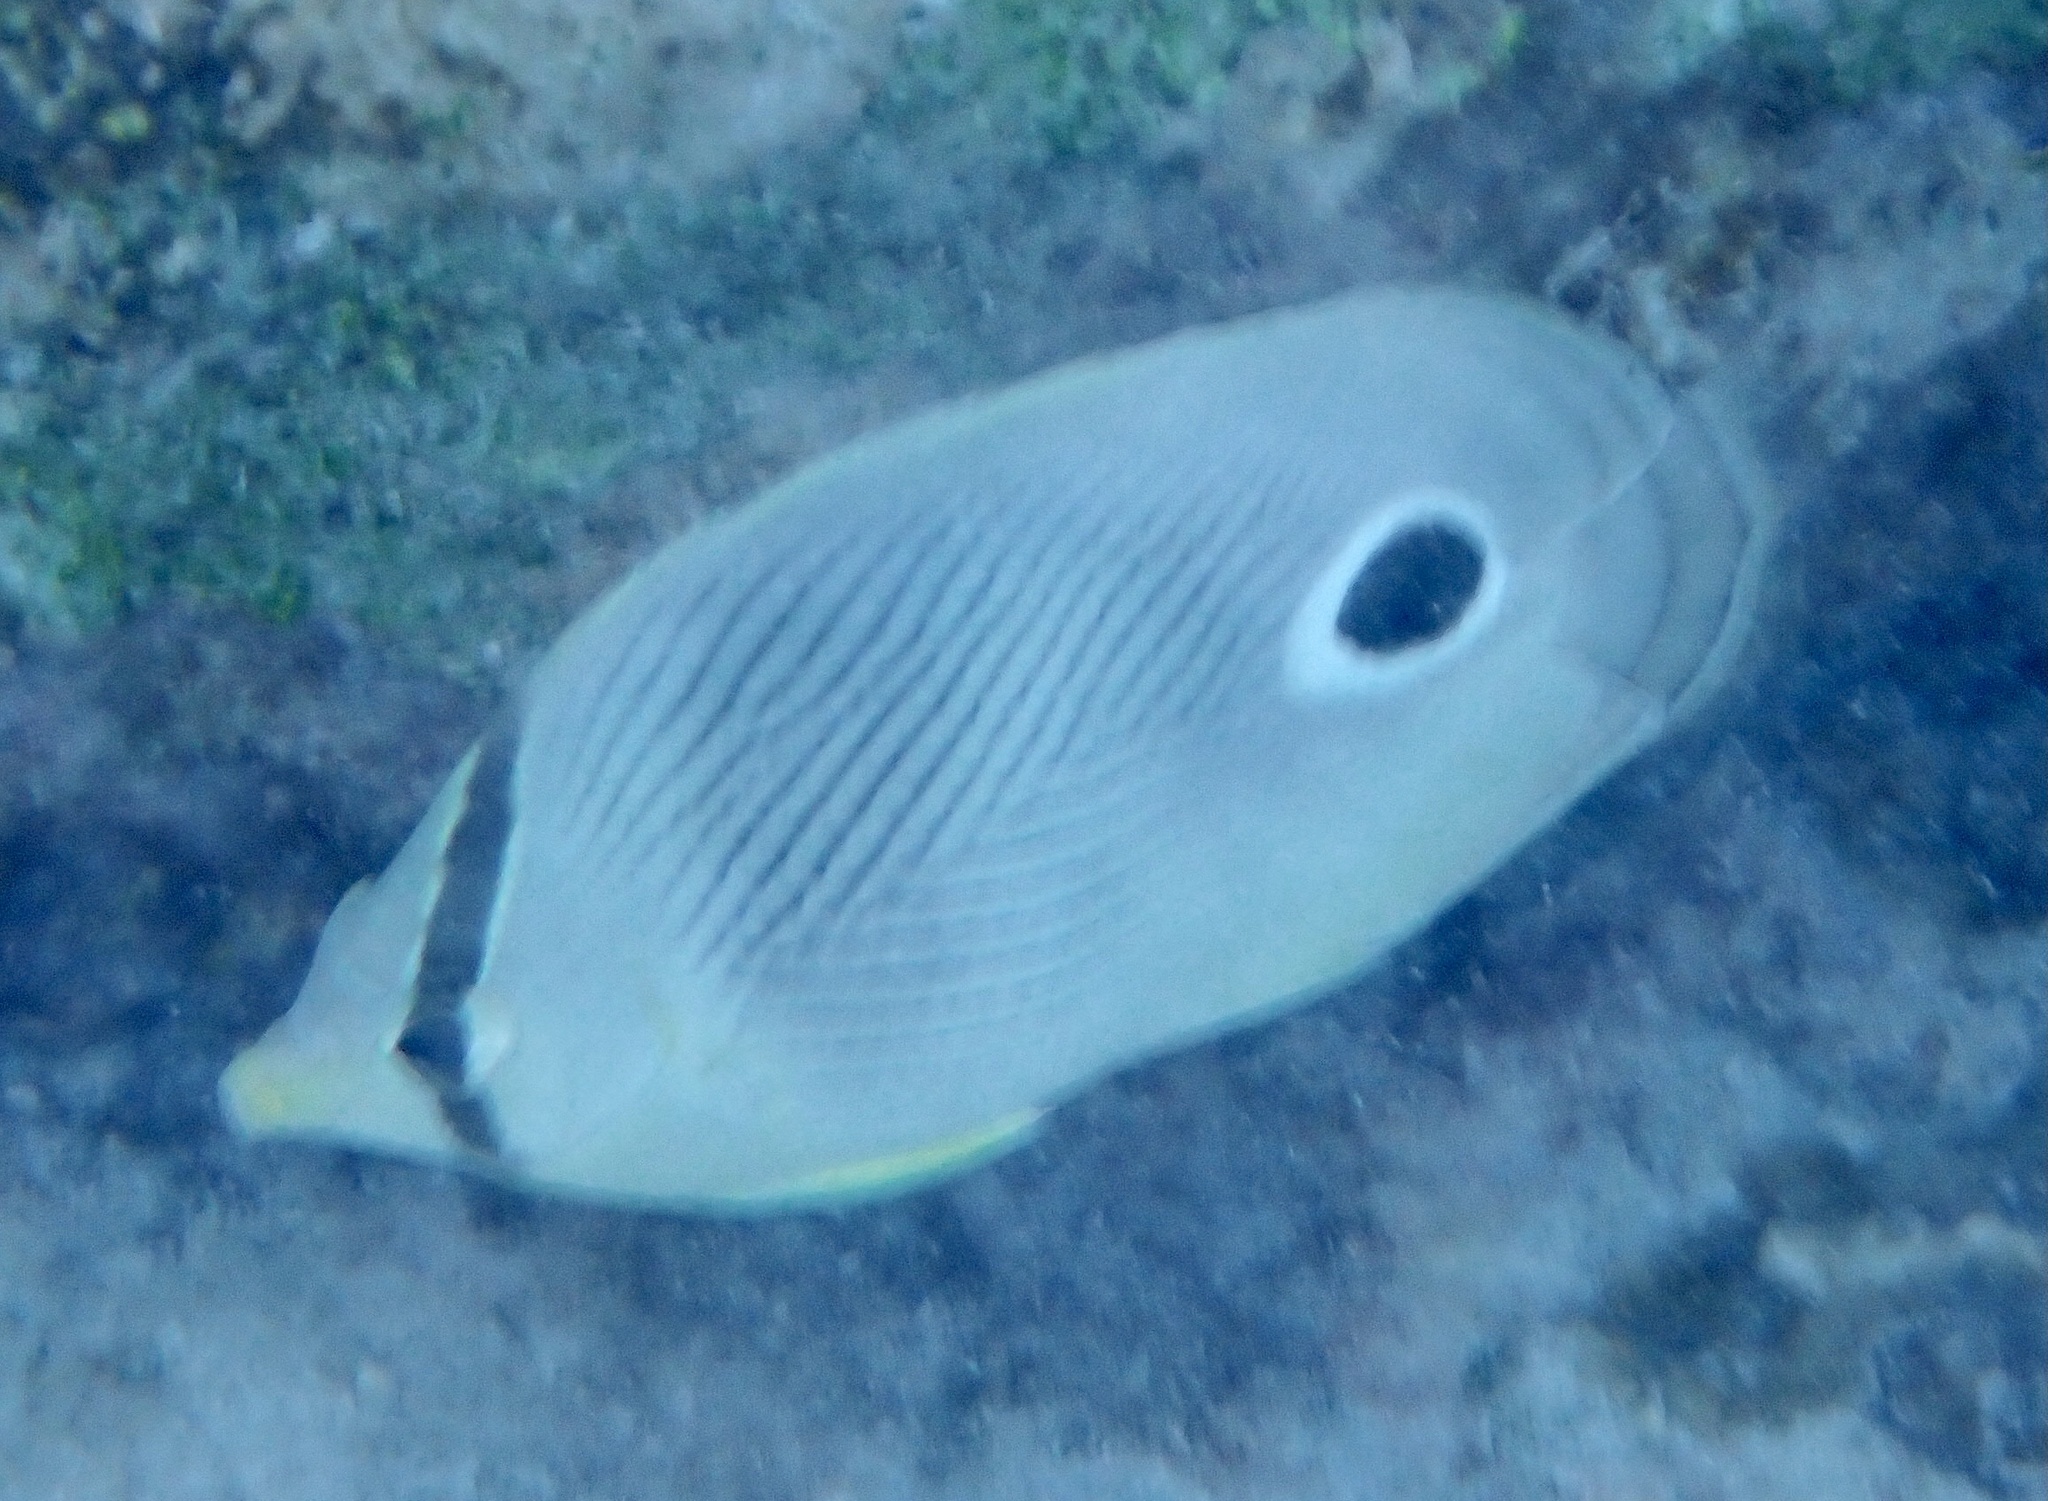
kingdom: Animalia
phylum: Chordata
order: Perciformes
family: Chaetodontidae
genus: Chaetodon
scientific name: Chaetodon capistratus
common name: Kete
